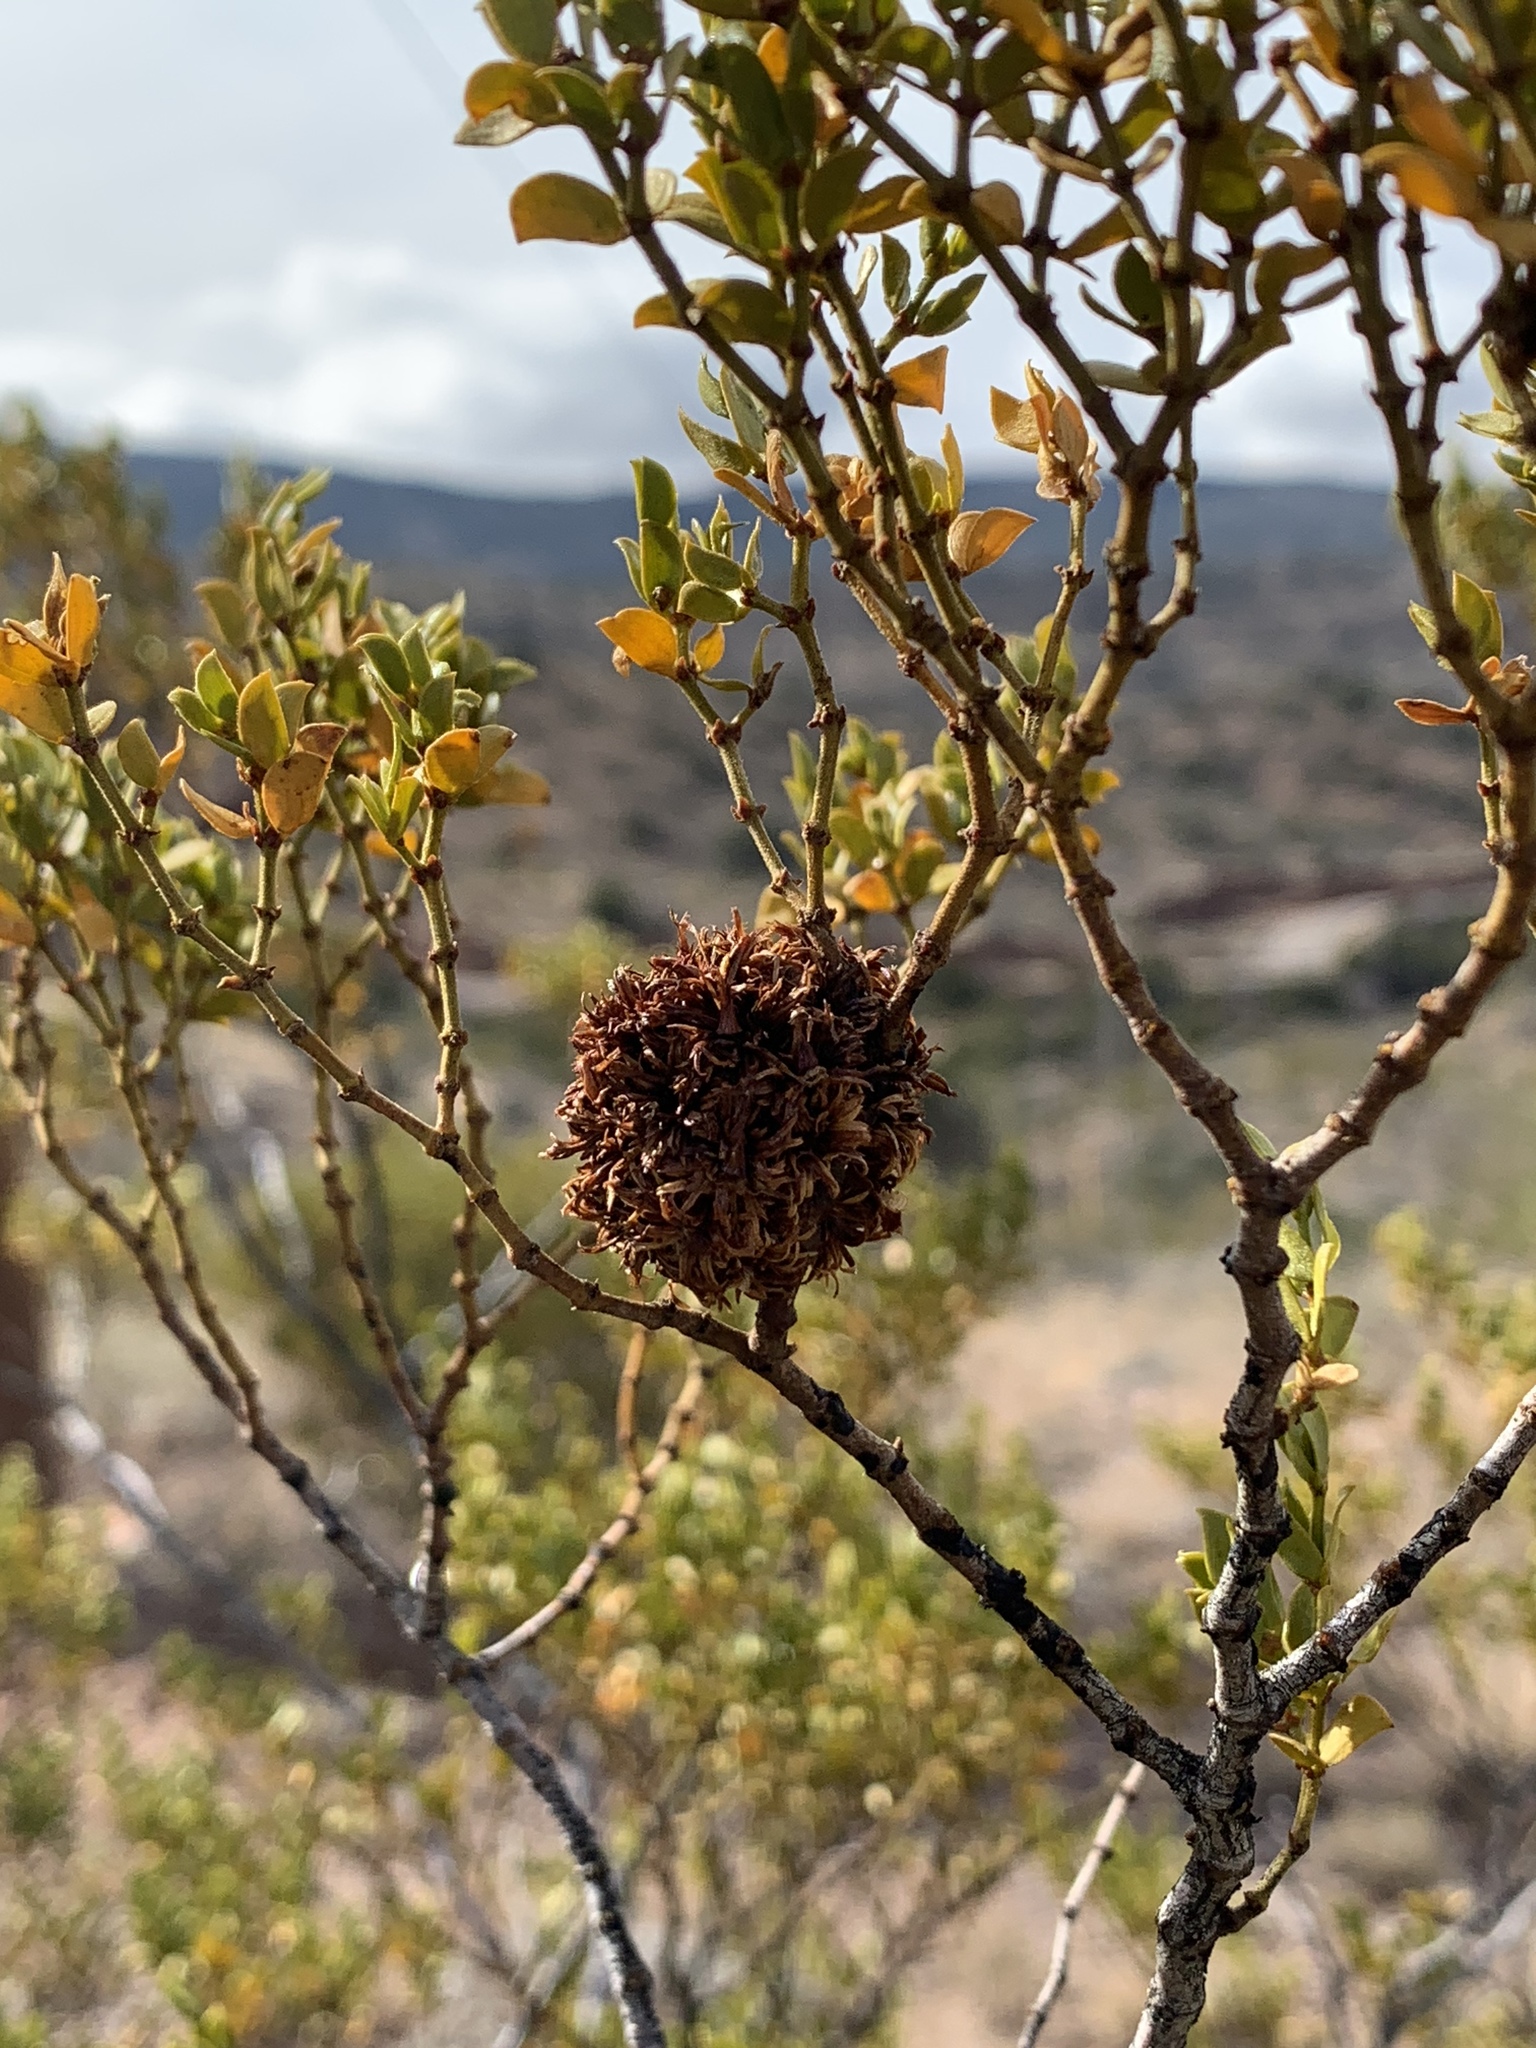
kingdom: Animalia
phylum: Arthropoda
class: Insecta
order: Diptera
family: Cecidomyiidae
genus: Asphondylia
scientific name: Asphondylia auripila
